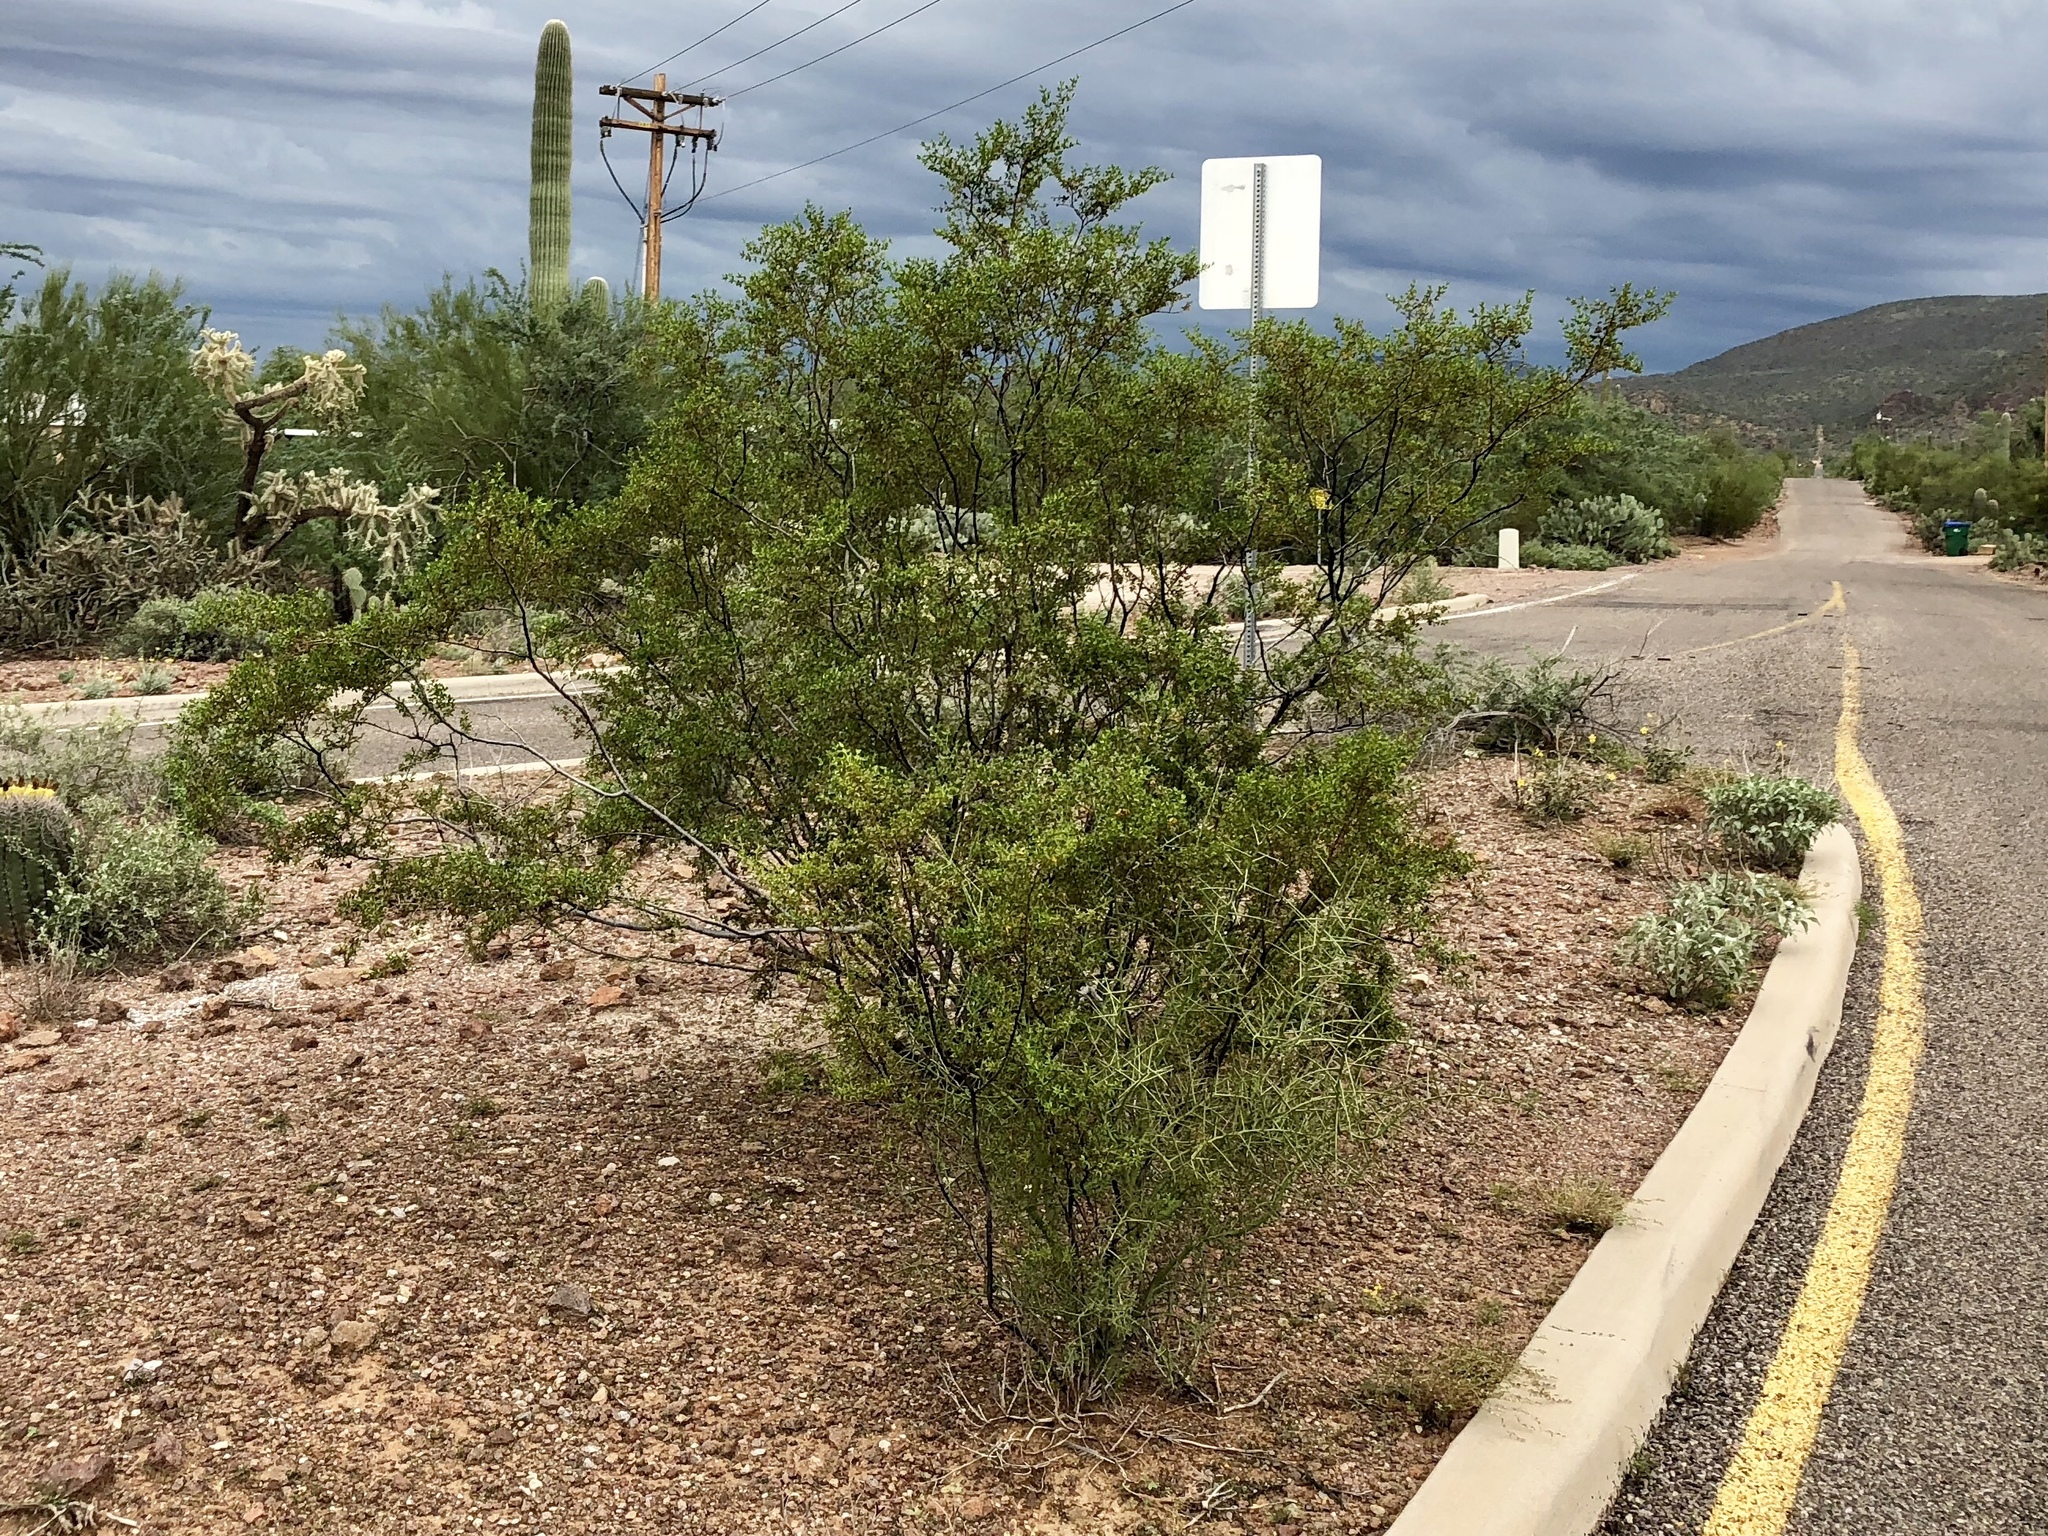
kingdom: Plantae
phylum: Tracheophyta
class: Magnoliopsida
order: Zygophyllales
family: Zygophyllaceae
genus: Larrea
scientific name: Larrea tridentata
